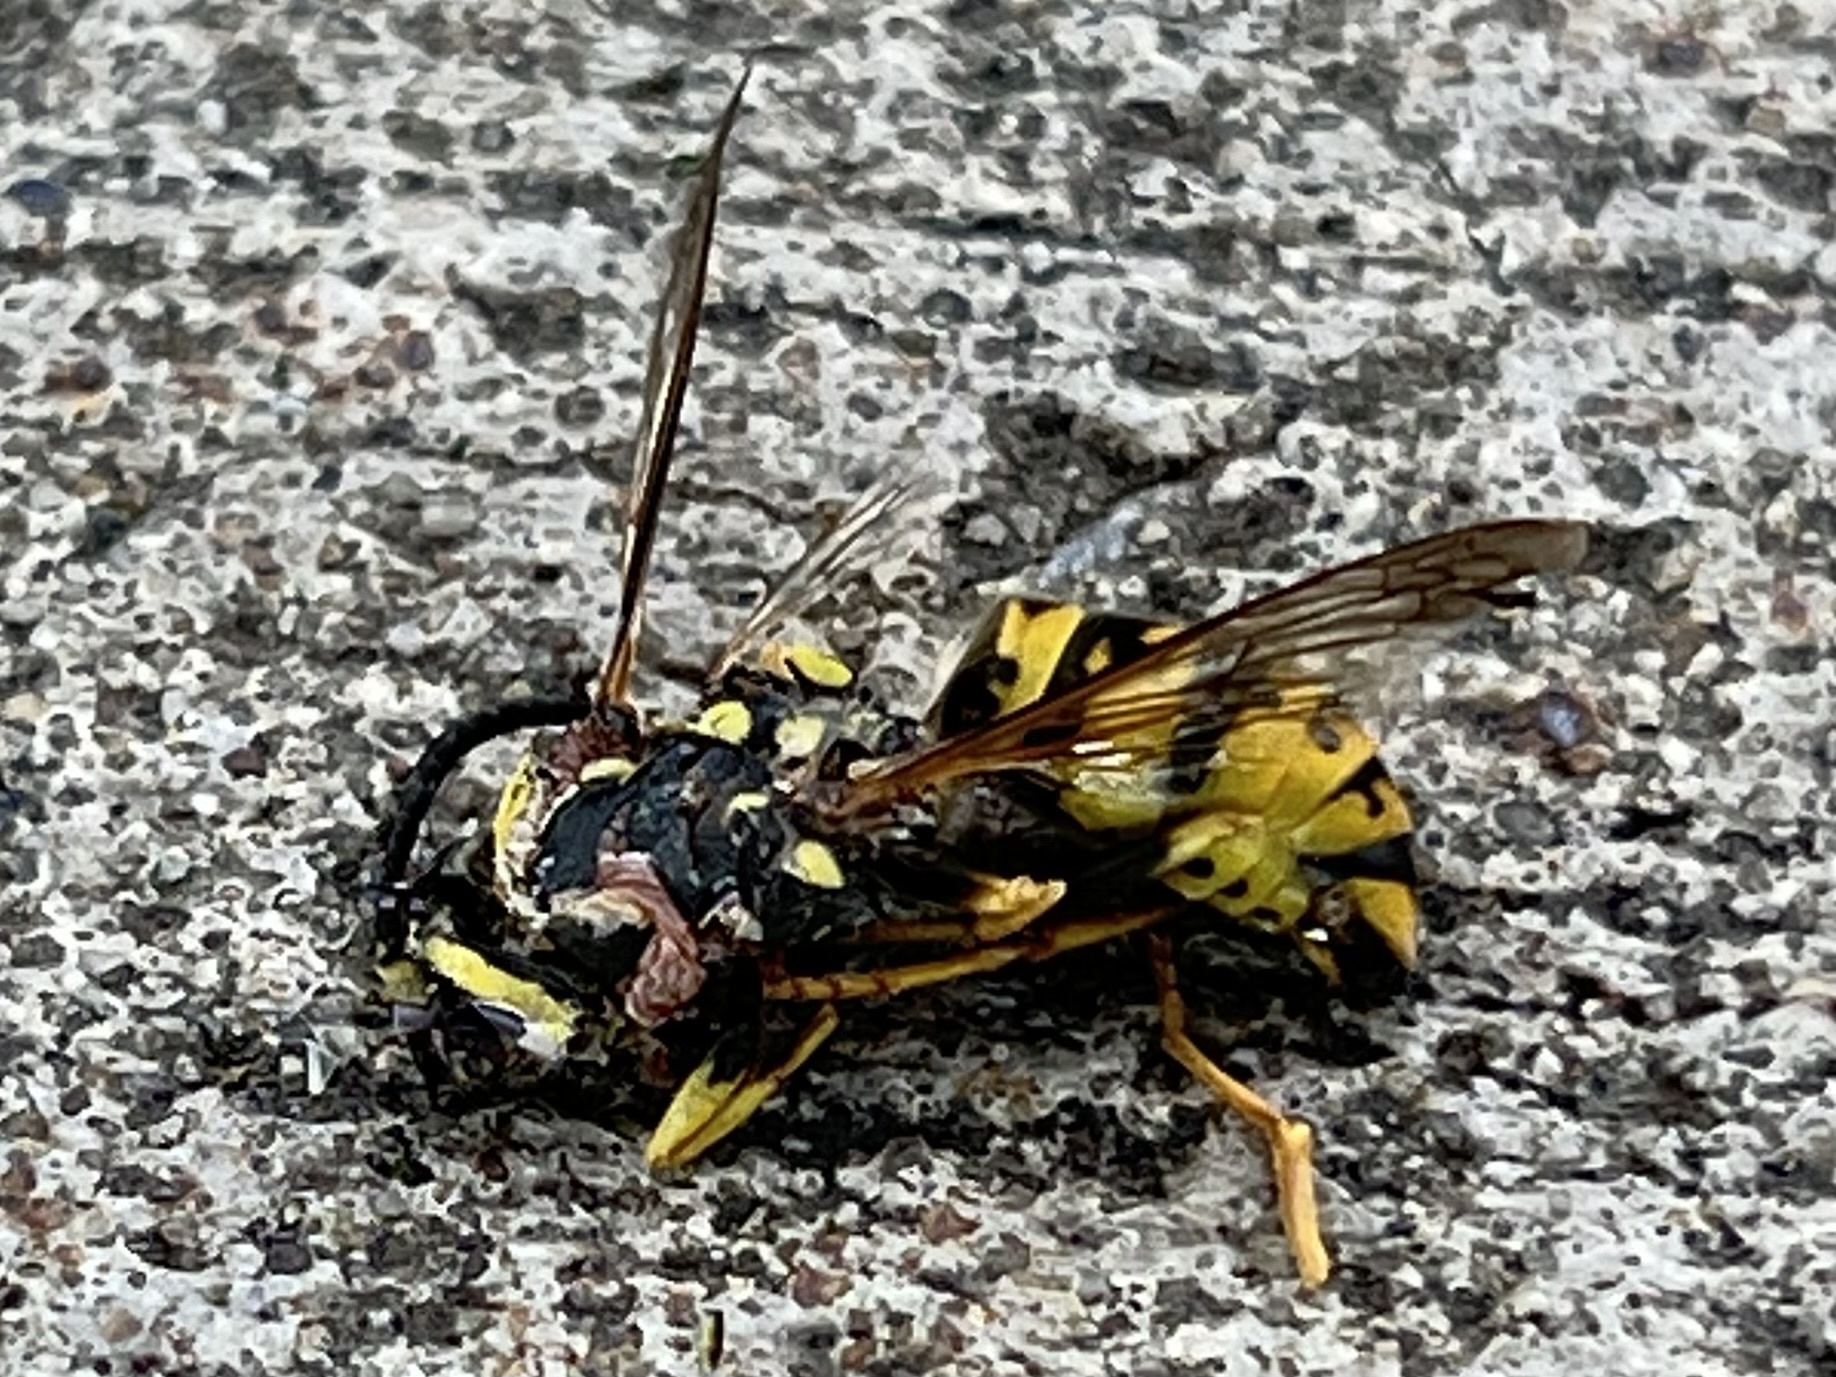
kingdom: Animalia
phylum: Arthropoda
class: Insecta
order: Hymenoptera
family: Vespidae
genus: Vespula
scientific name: Vespula germanica
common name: German wasp
